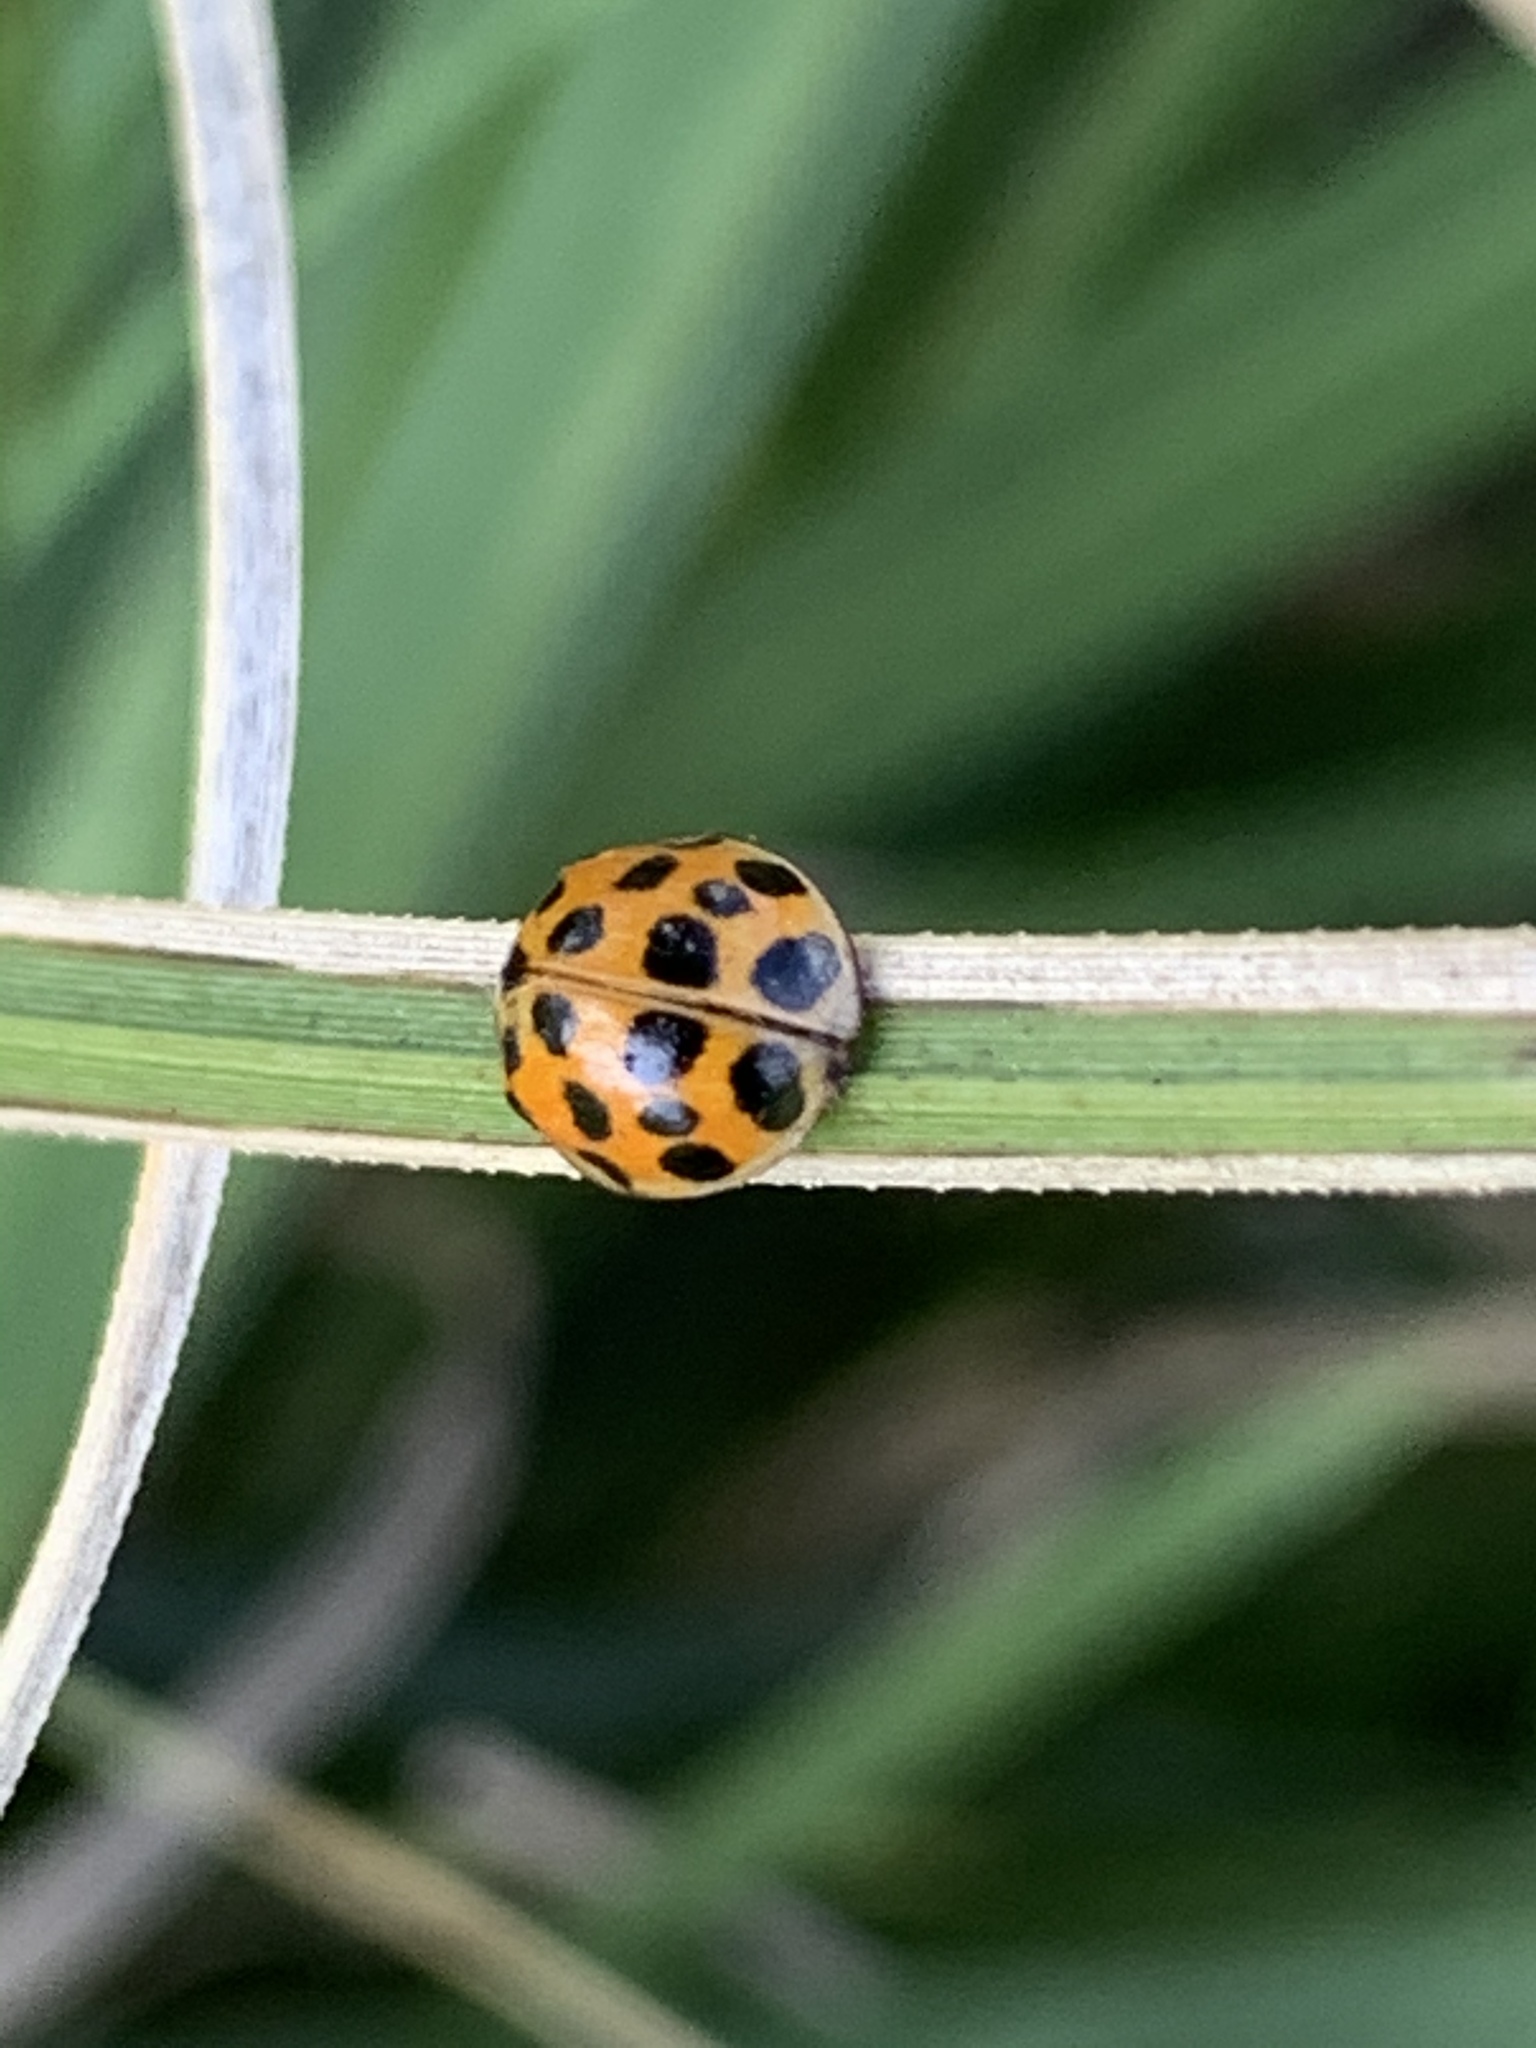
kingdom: Animalia
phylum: Arthropoda
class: Insecta
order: Coleoptera
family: Coccinellidae
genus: Harmonia
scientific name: Harmonia axyridis
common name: Harlequin ladybird
